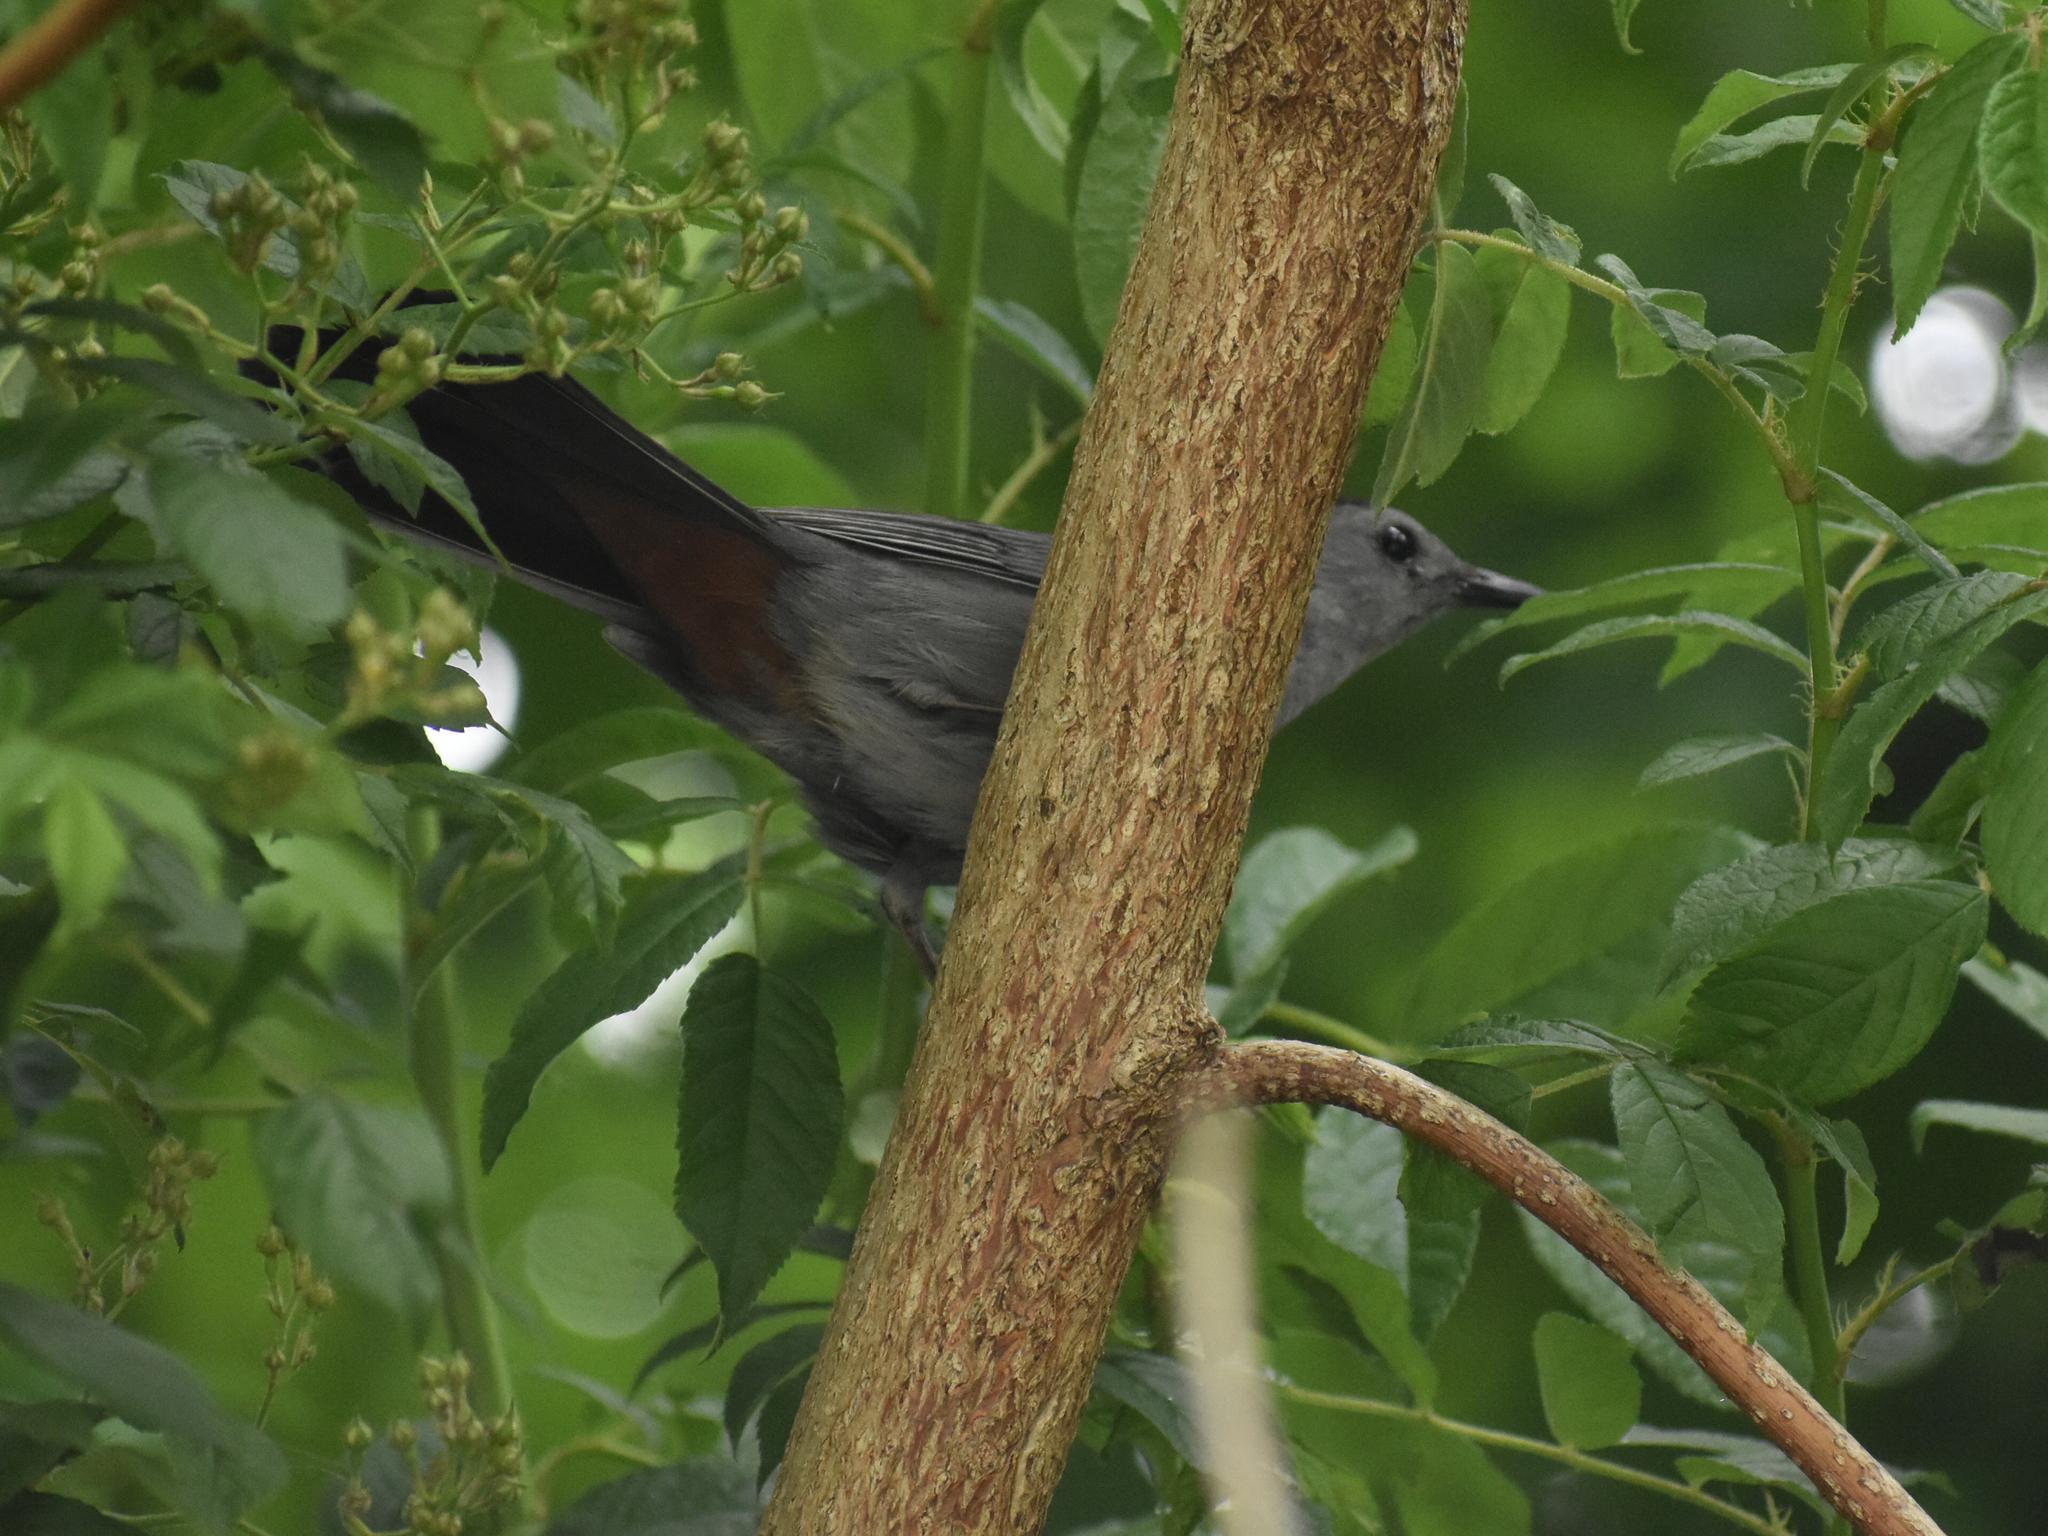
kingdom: Animalia
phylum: Chordata
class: Aves
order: Passeriformes
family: Mimidae
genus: Dumetella
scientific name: Dumetella carolinensis
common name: Gray catbird
